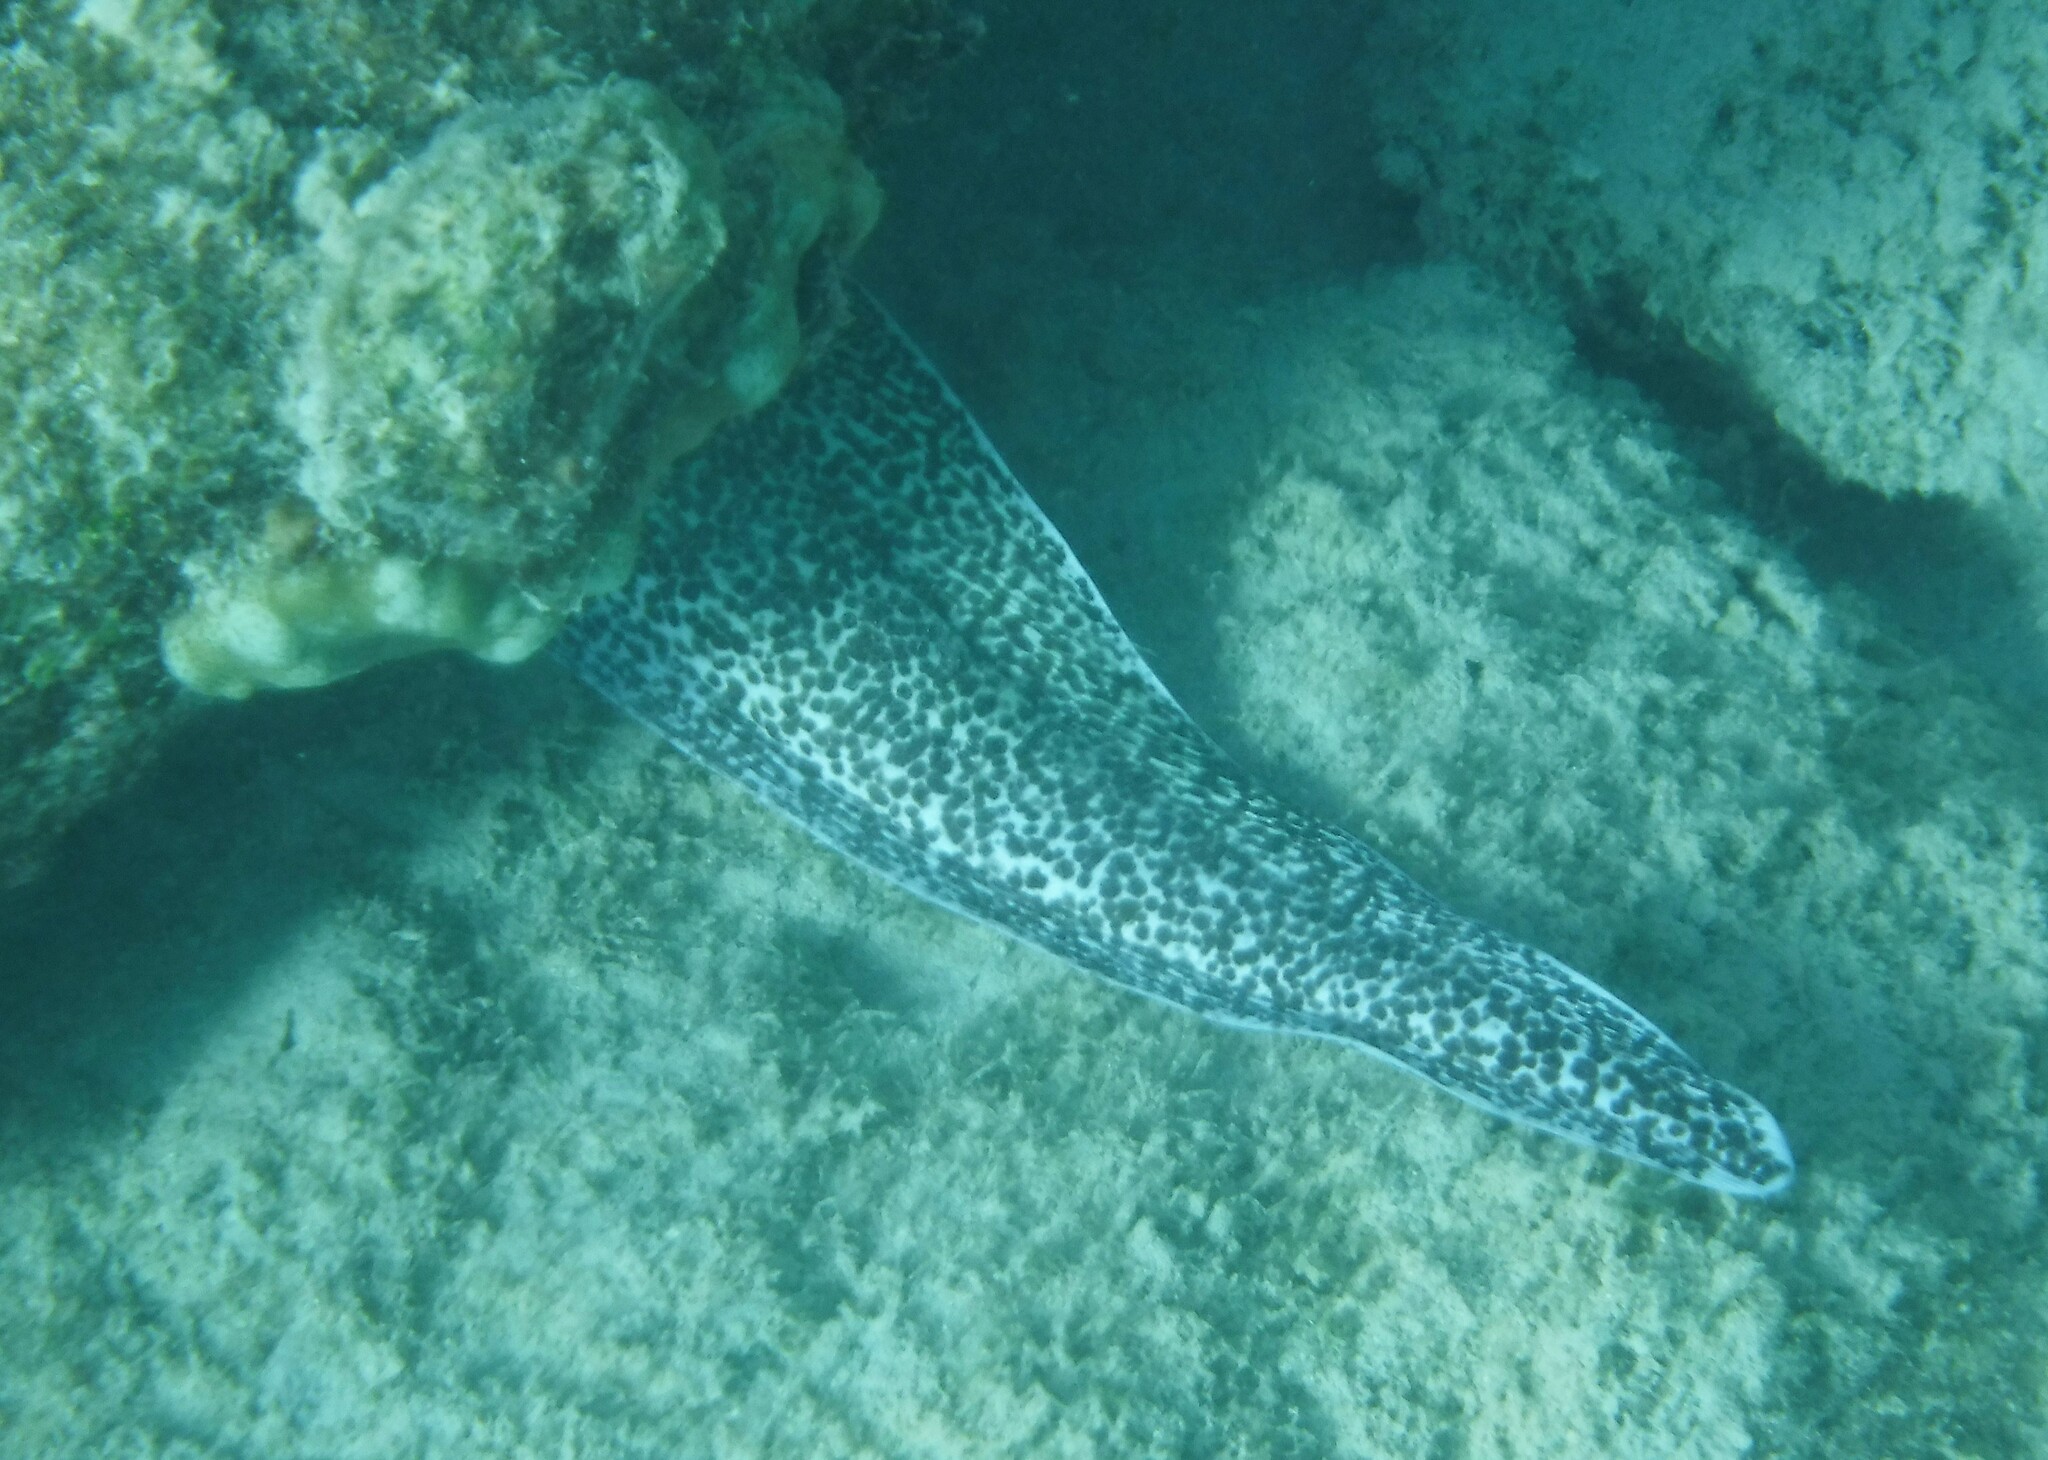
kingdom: Animalia
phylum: Chordata
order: Anguilliformes
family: Muraenidae
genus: Gymnothorax
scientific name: Gymnothorax moringa
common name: Spotted moray
